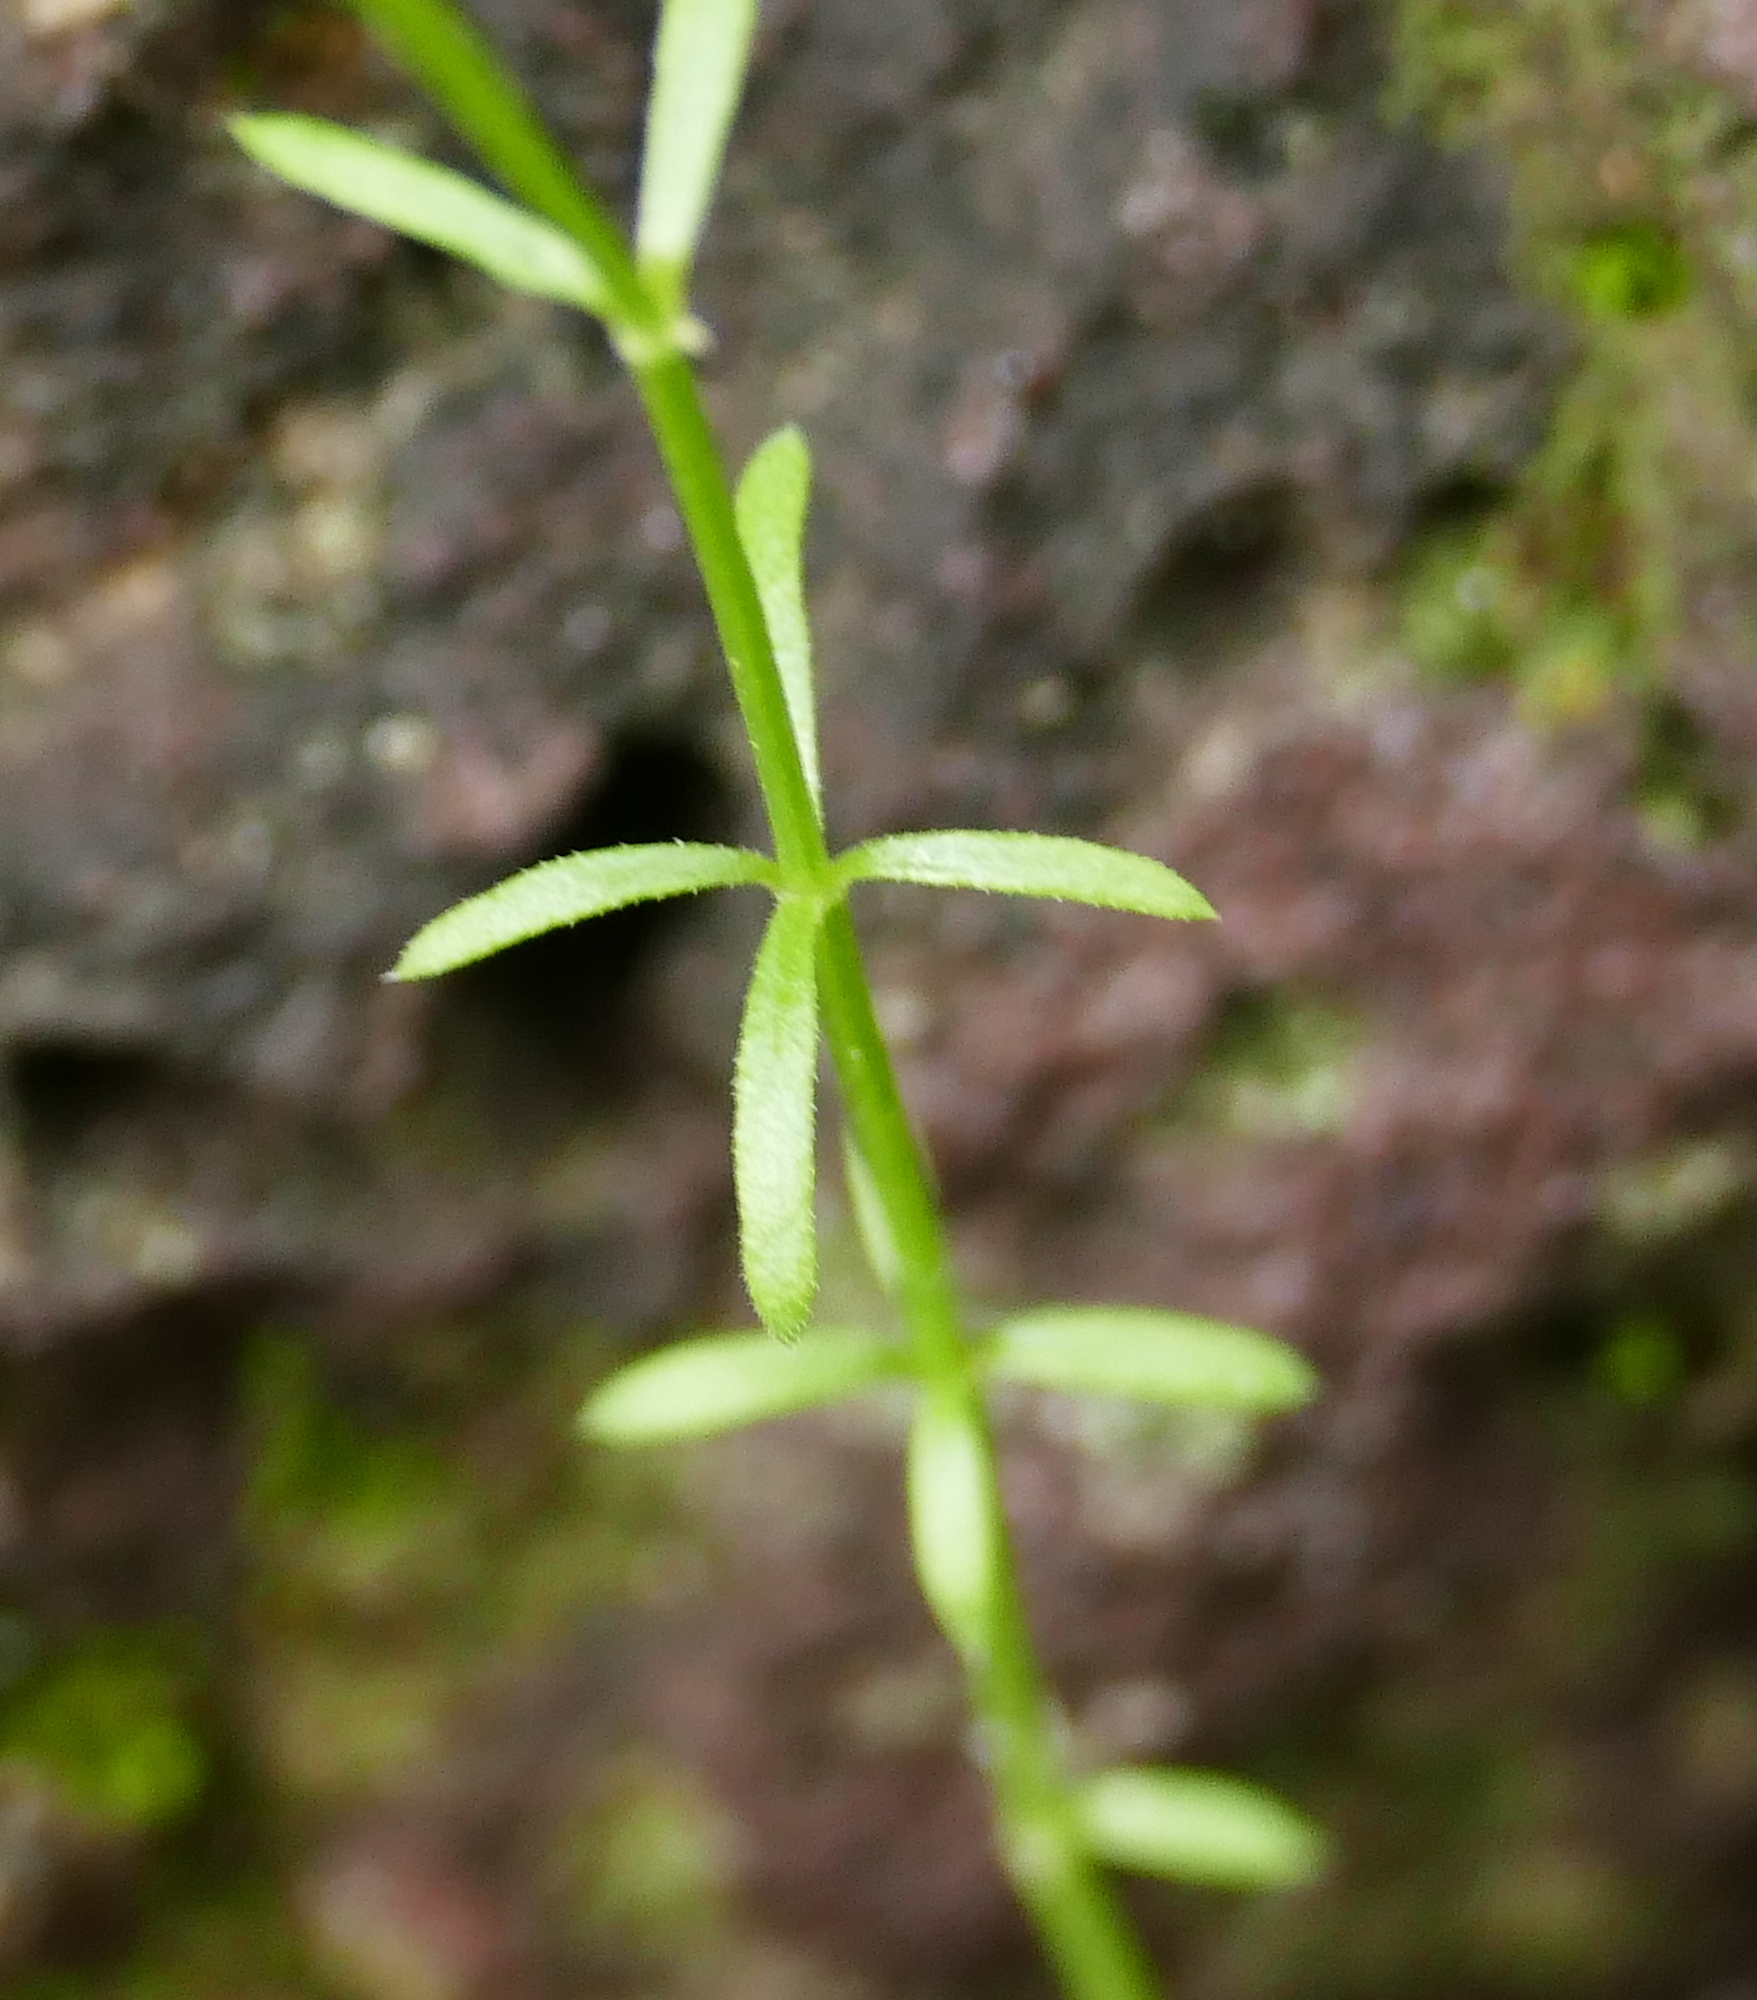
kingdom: Plantae
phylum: Tracheophyta
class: Magnoliopsida
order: Gentianales
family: Rubiaceae
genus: Galium
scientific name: Galium wrightii
